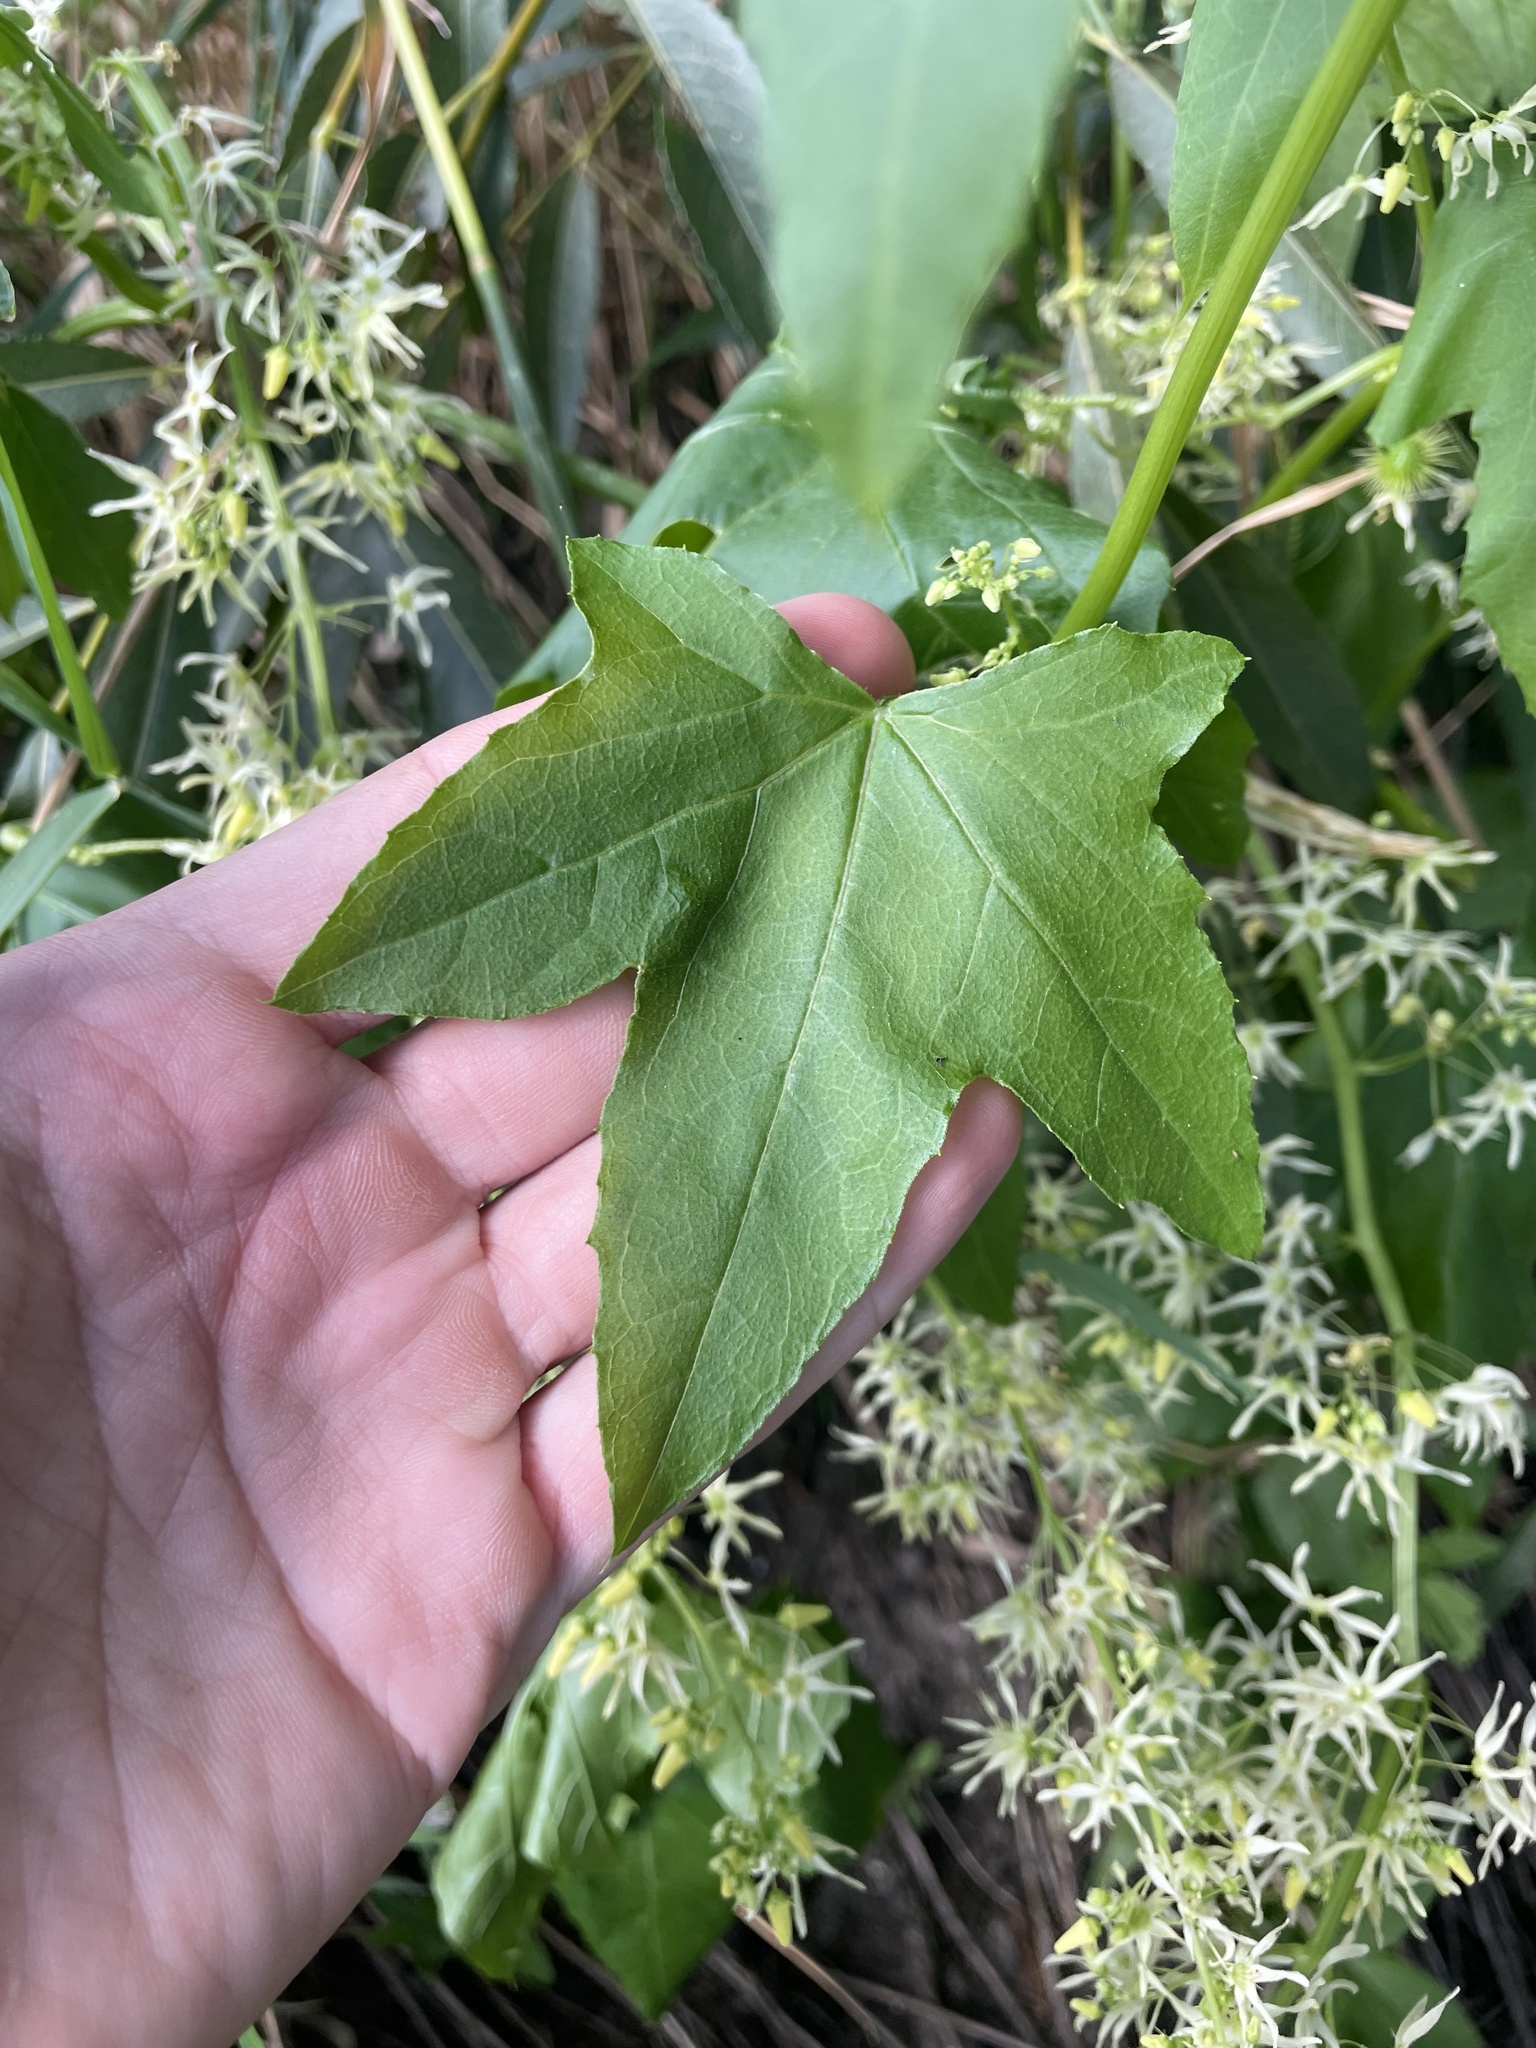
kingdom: Plantae
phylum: Tracheophyta
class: Magnoliopsida
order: Cucurbitales
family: Cucurbitaceae
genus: Echinocystis
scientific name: Echinocystis lobata
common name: Wild cucumber
